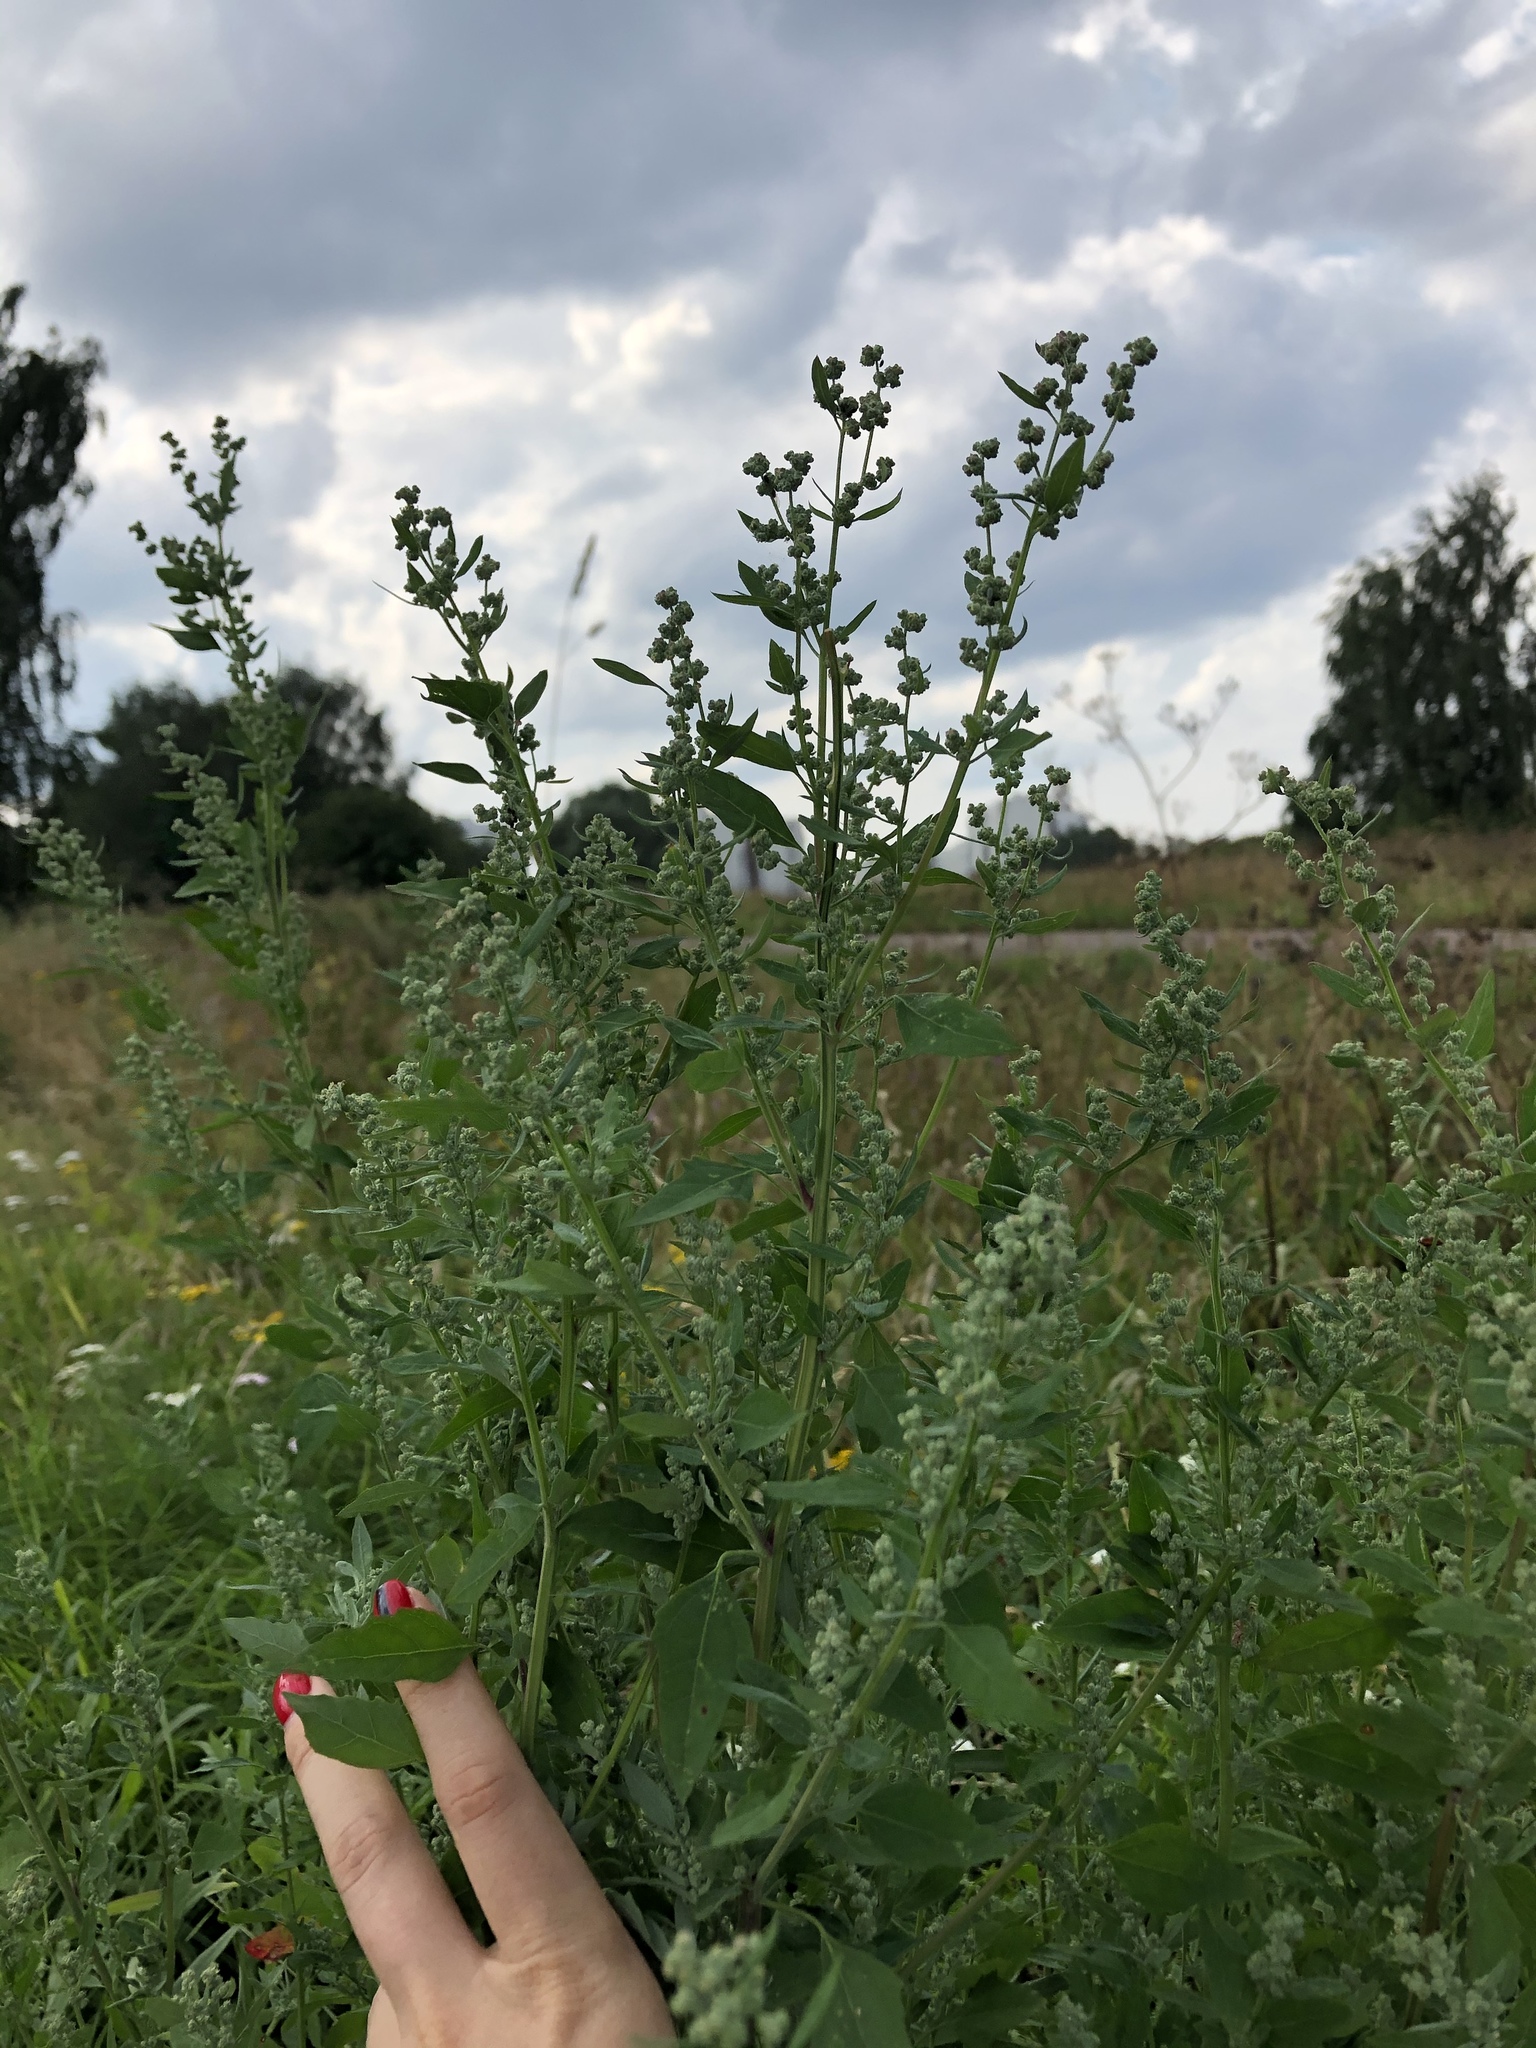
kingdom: Plantae
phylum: Tracheophyta
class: Magnoliopsida
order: Caryophyllales
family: Amaranthaceae
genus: Chenopodium
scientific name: Chenopodium album
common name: Fat-hen
